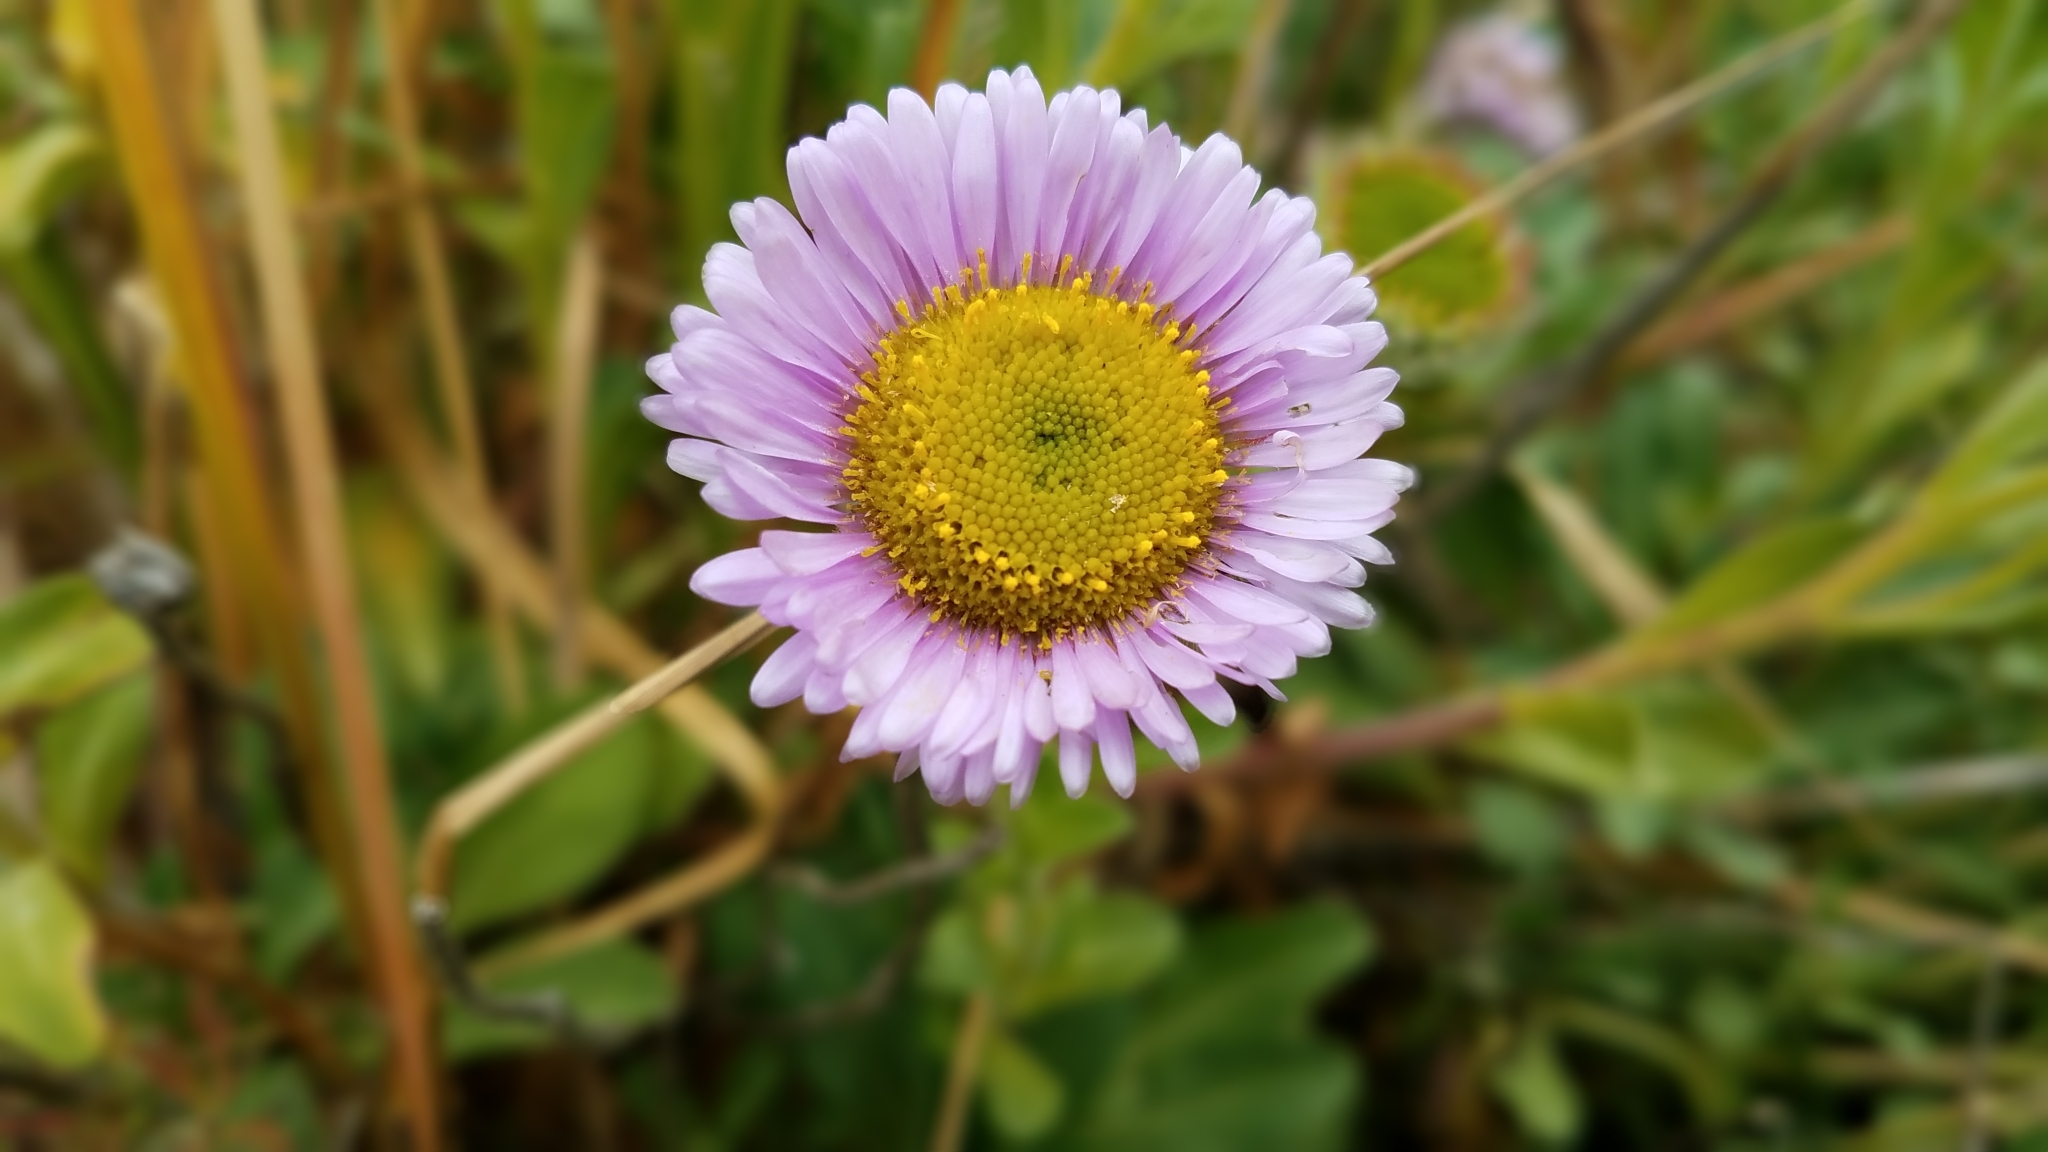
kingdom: Plantae
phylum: Tracheophyta
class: Magnoliopsida
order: Asterales
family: Asteraceae
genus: Erigeron
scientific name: Erigeron glaucus
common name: Seaside daisy
